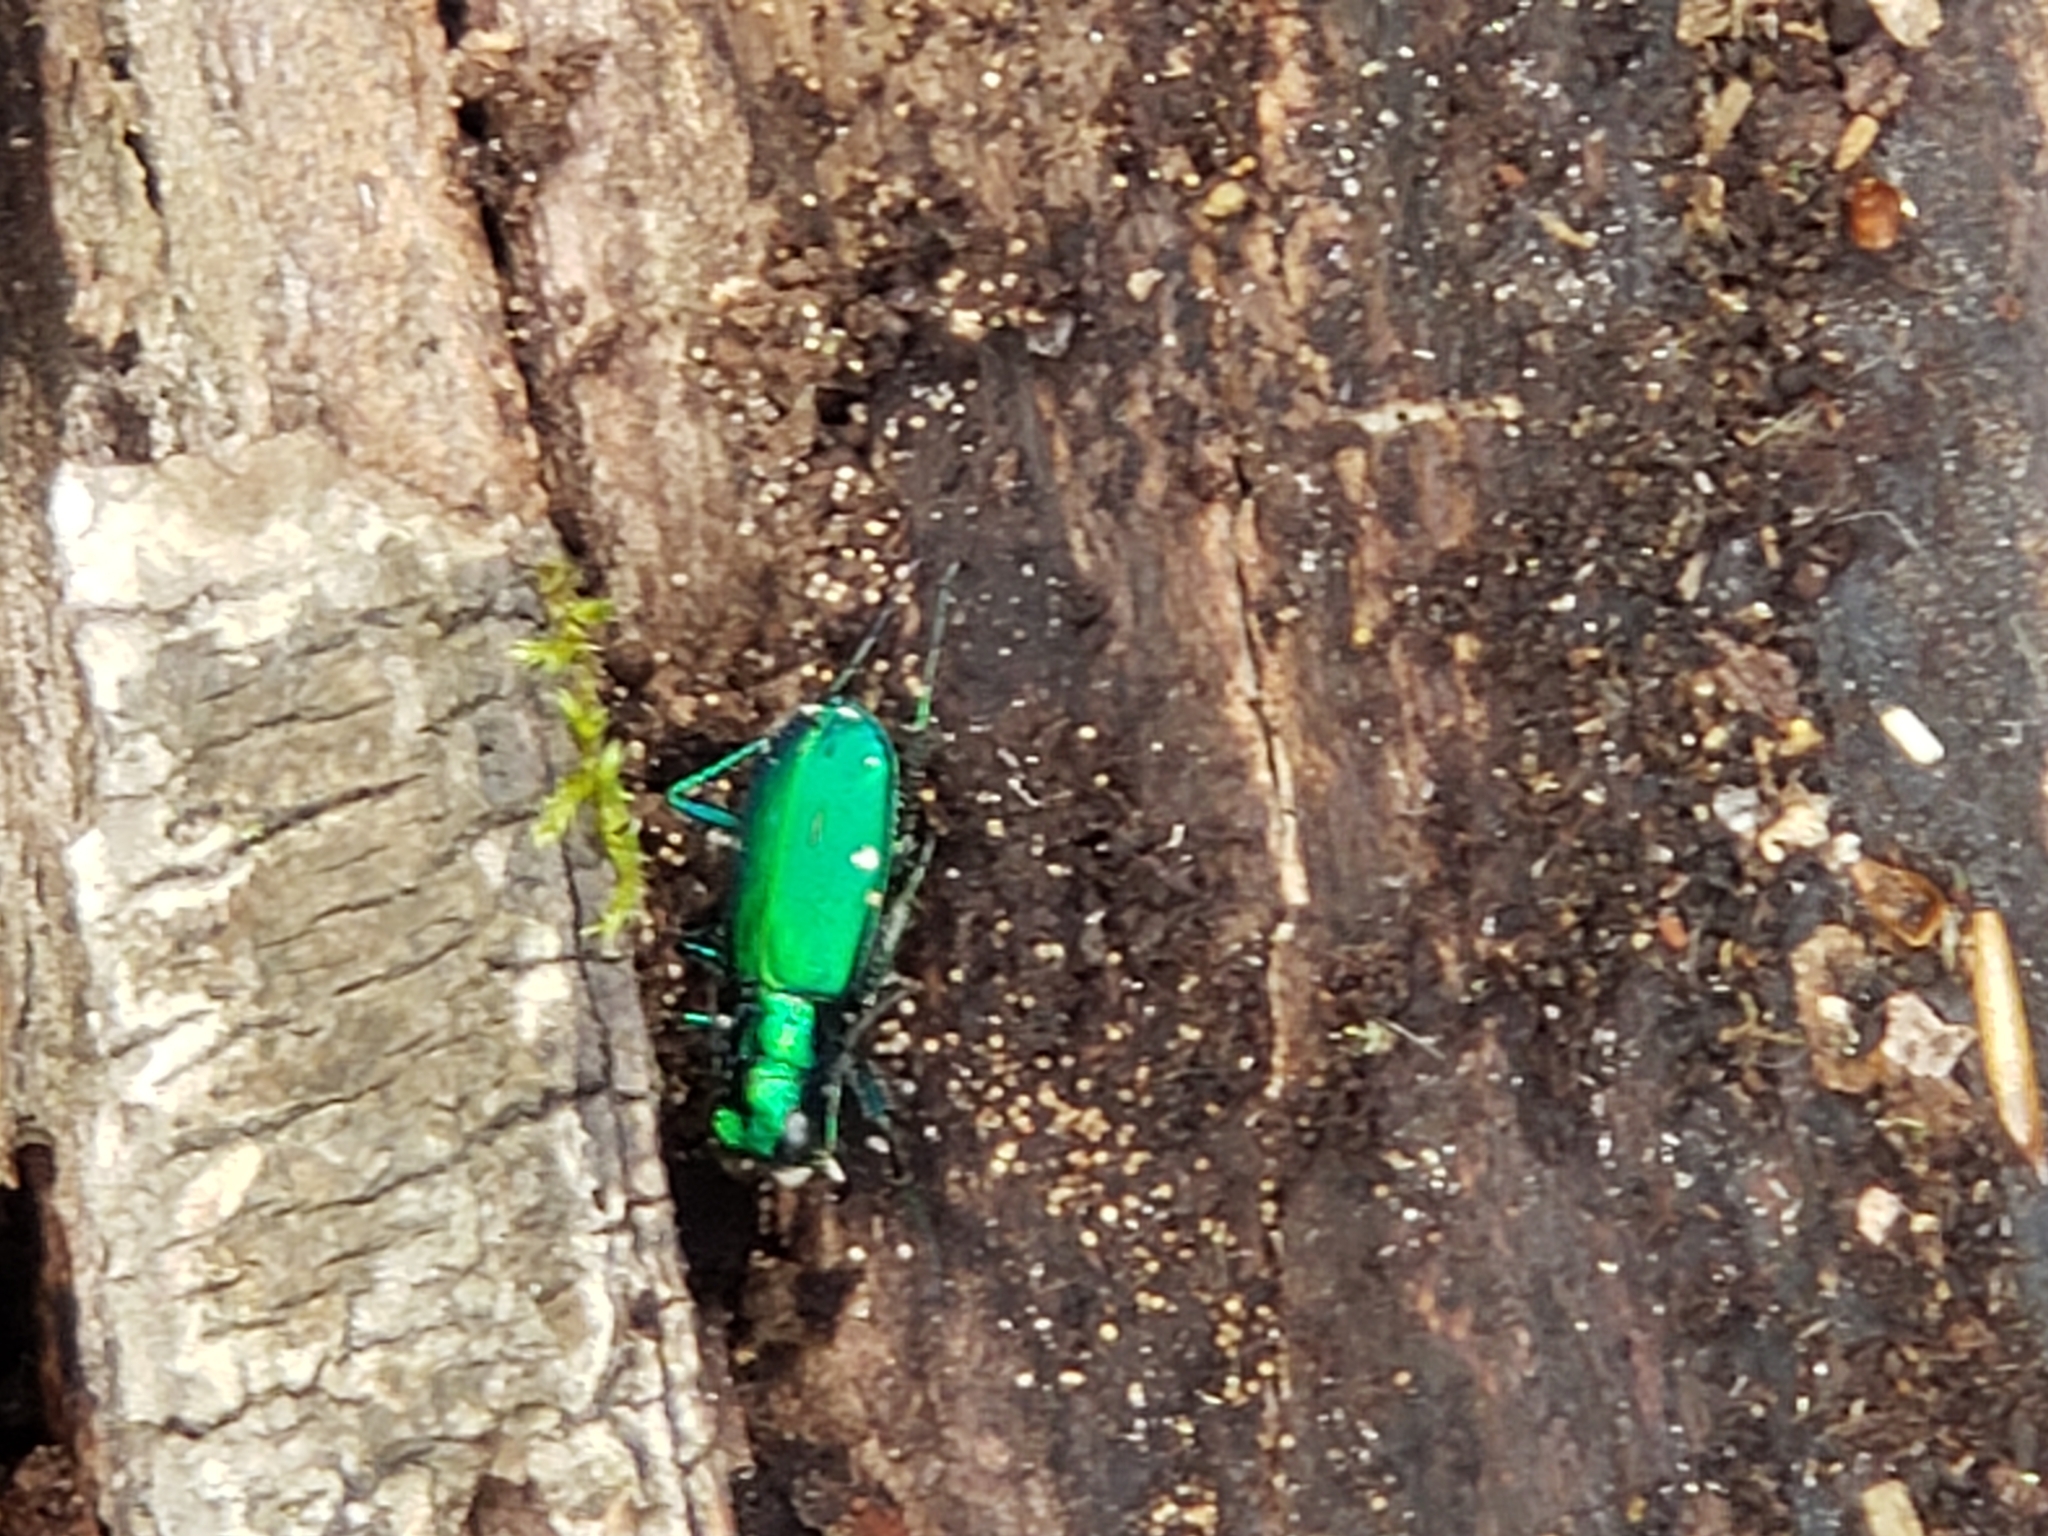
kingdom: Animalia
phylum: Arthropoda
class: Insecta
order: Coleoptera
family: Carabidae
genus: Cicindela
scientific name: Cicindela sexguttata
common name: Six-spotted tiger beetle
